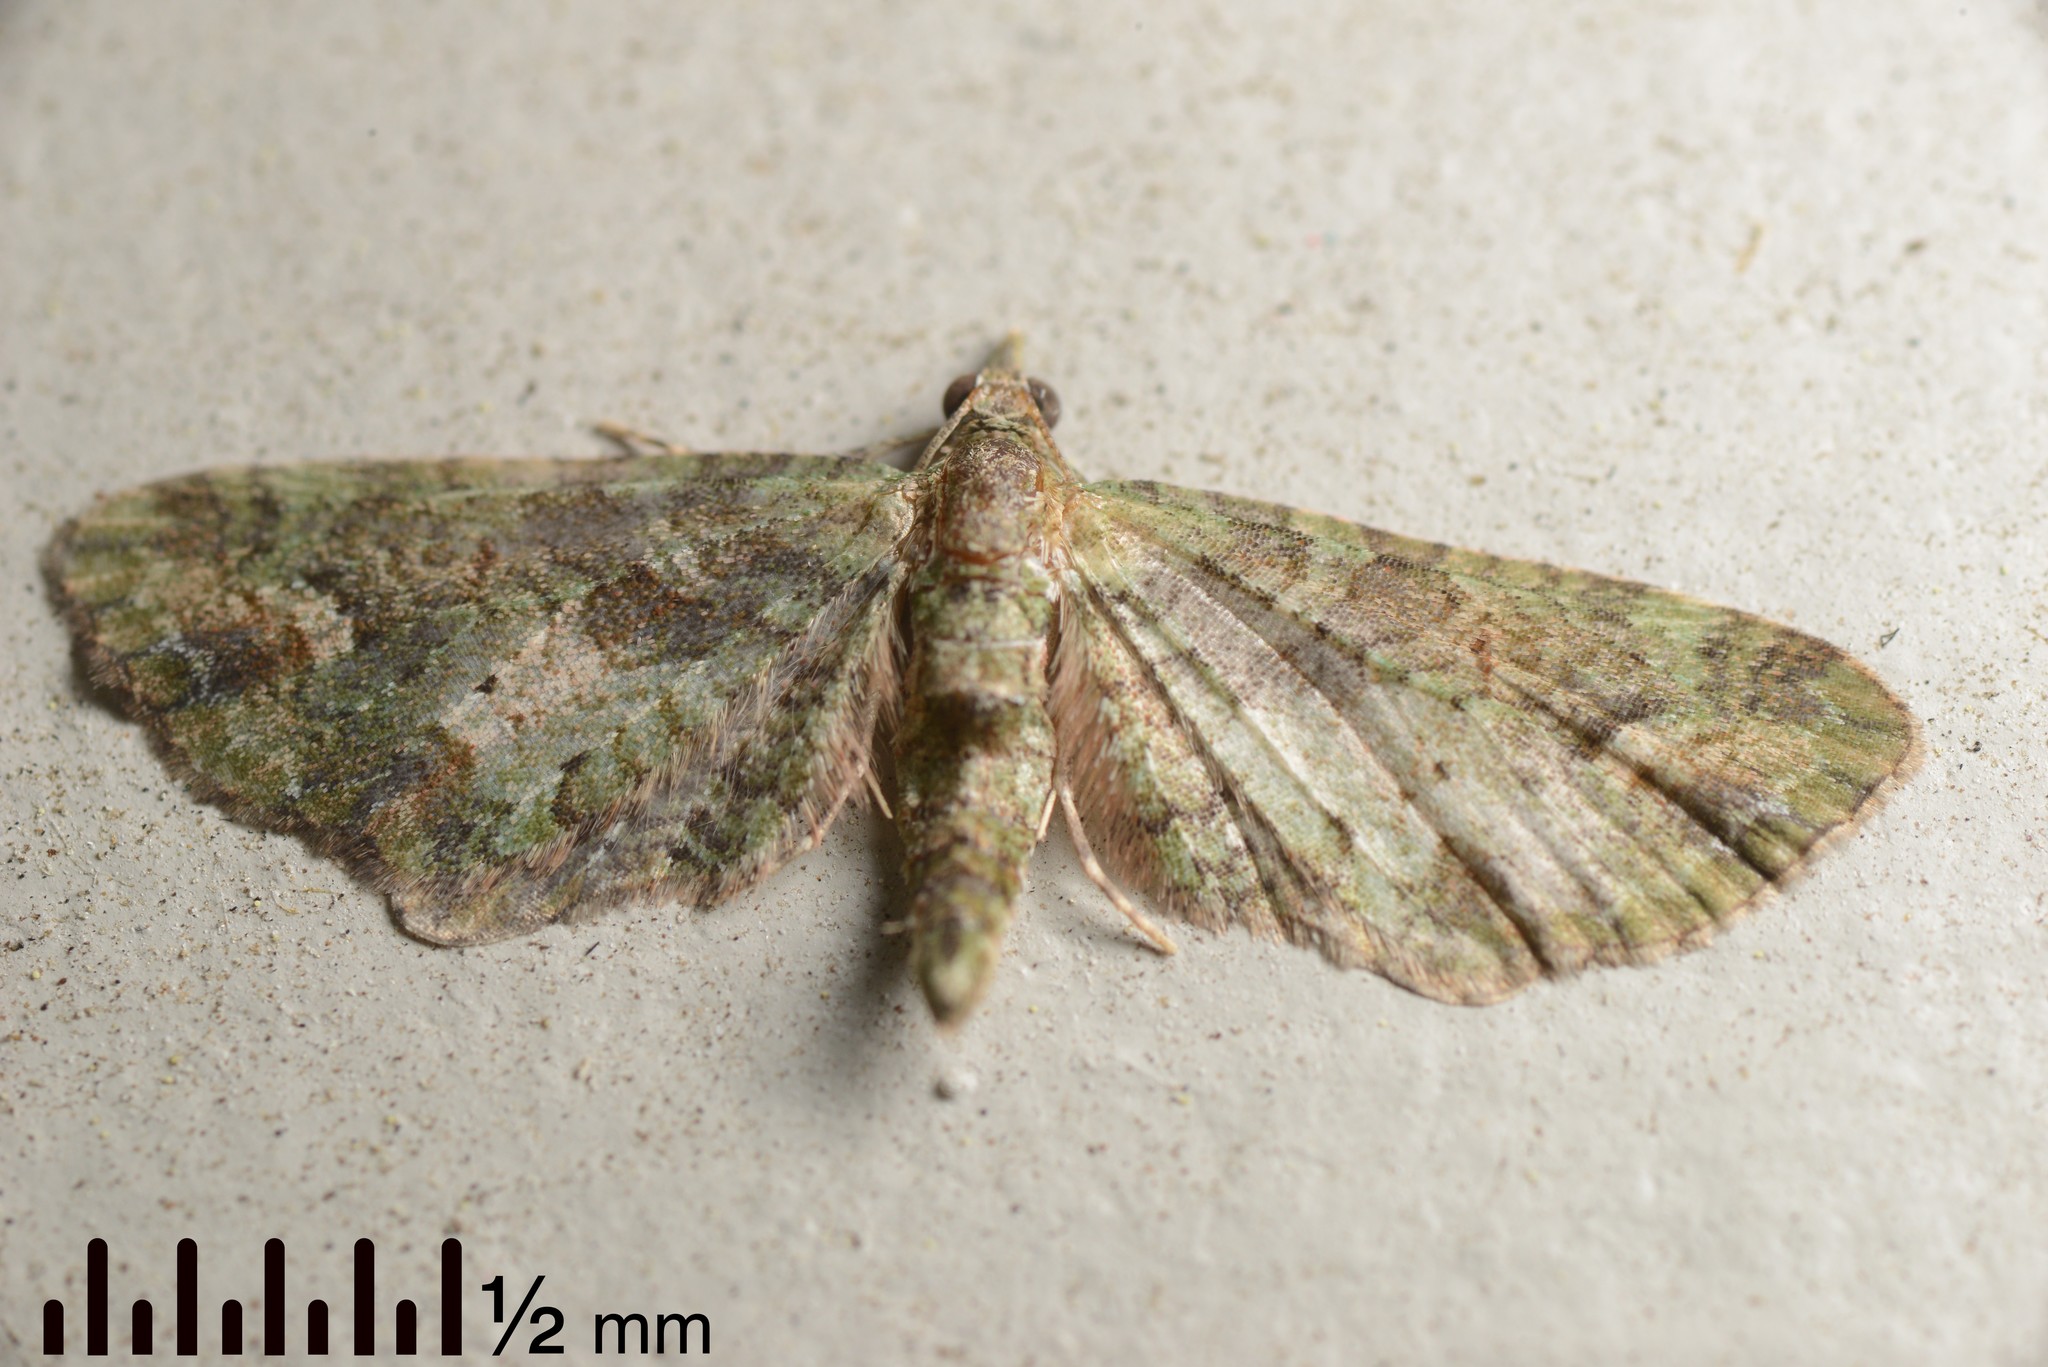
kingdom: Animalia
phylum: Arthropoda
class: Insecta
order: Lepidoptera
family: Geometridae
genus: Idaea
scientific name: Idaea mutanda
